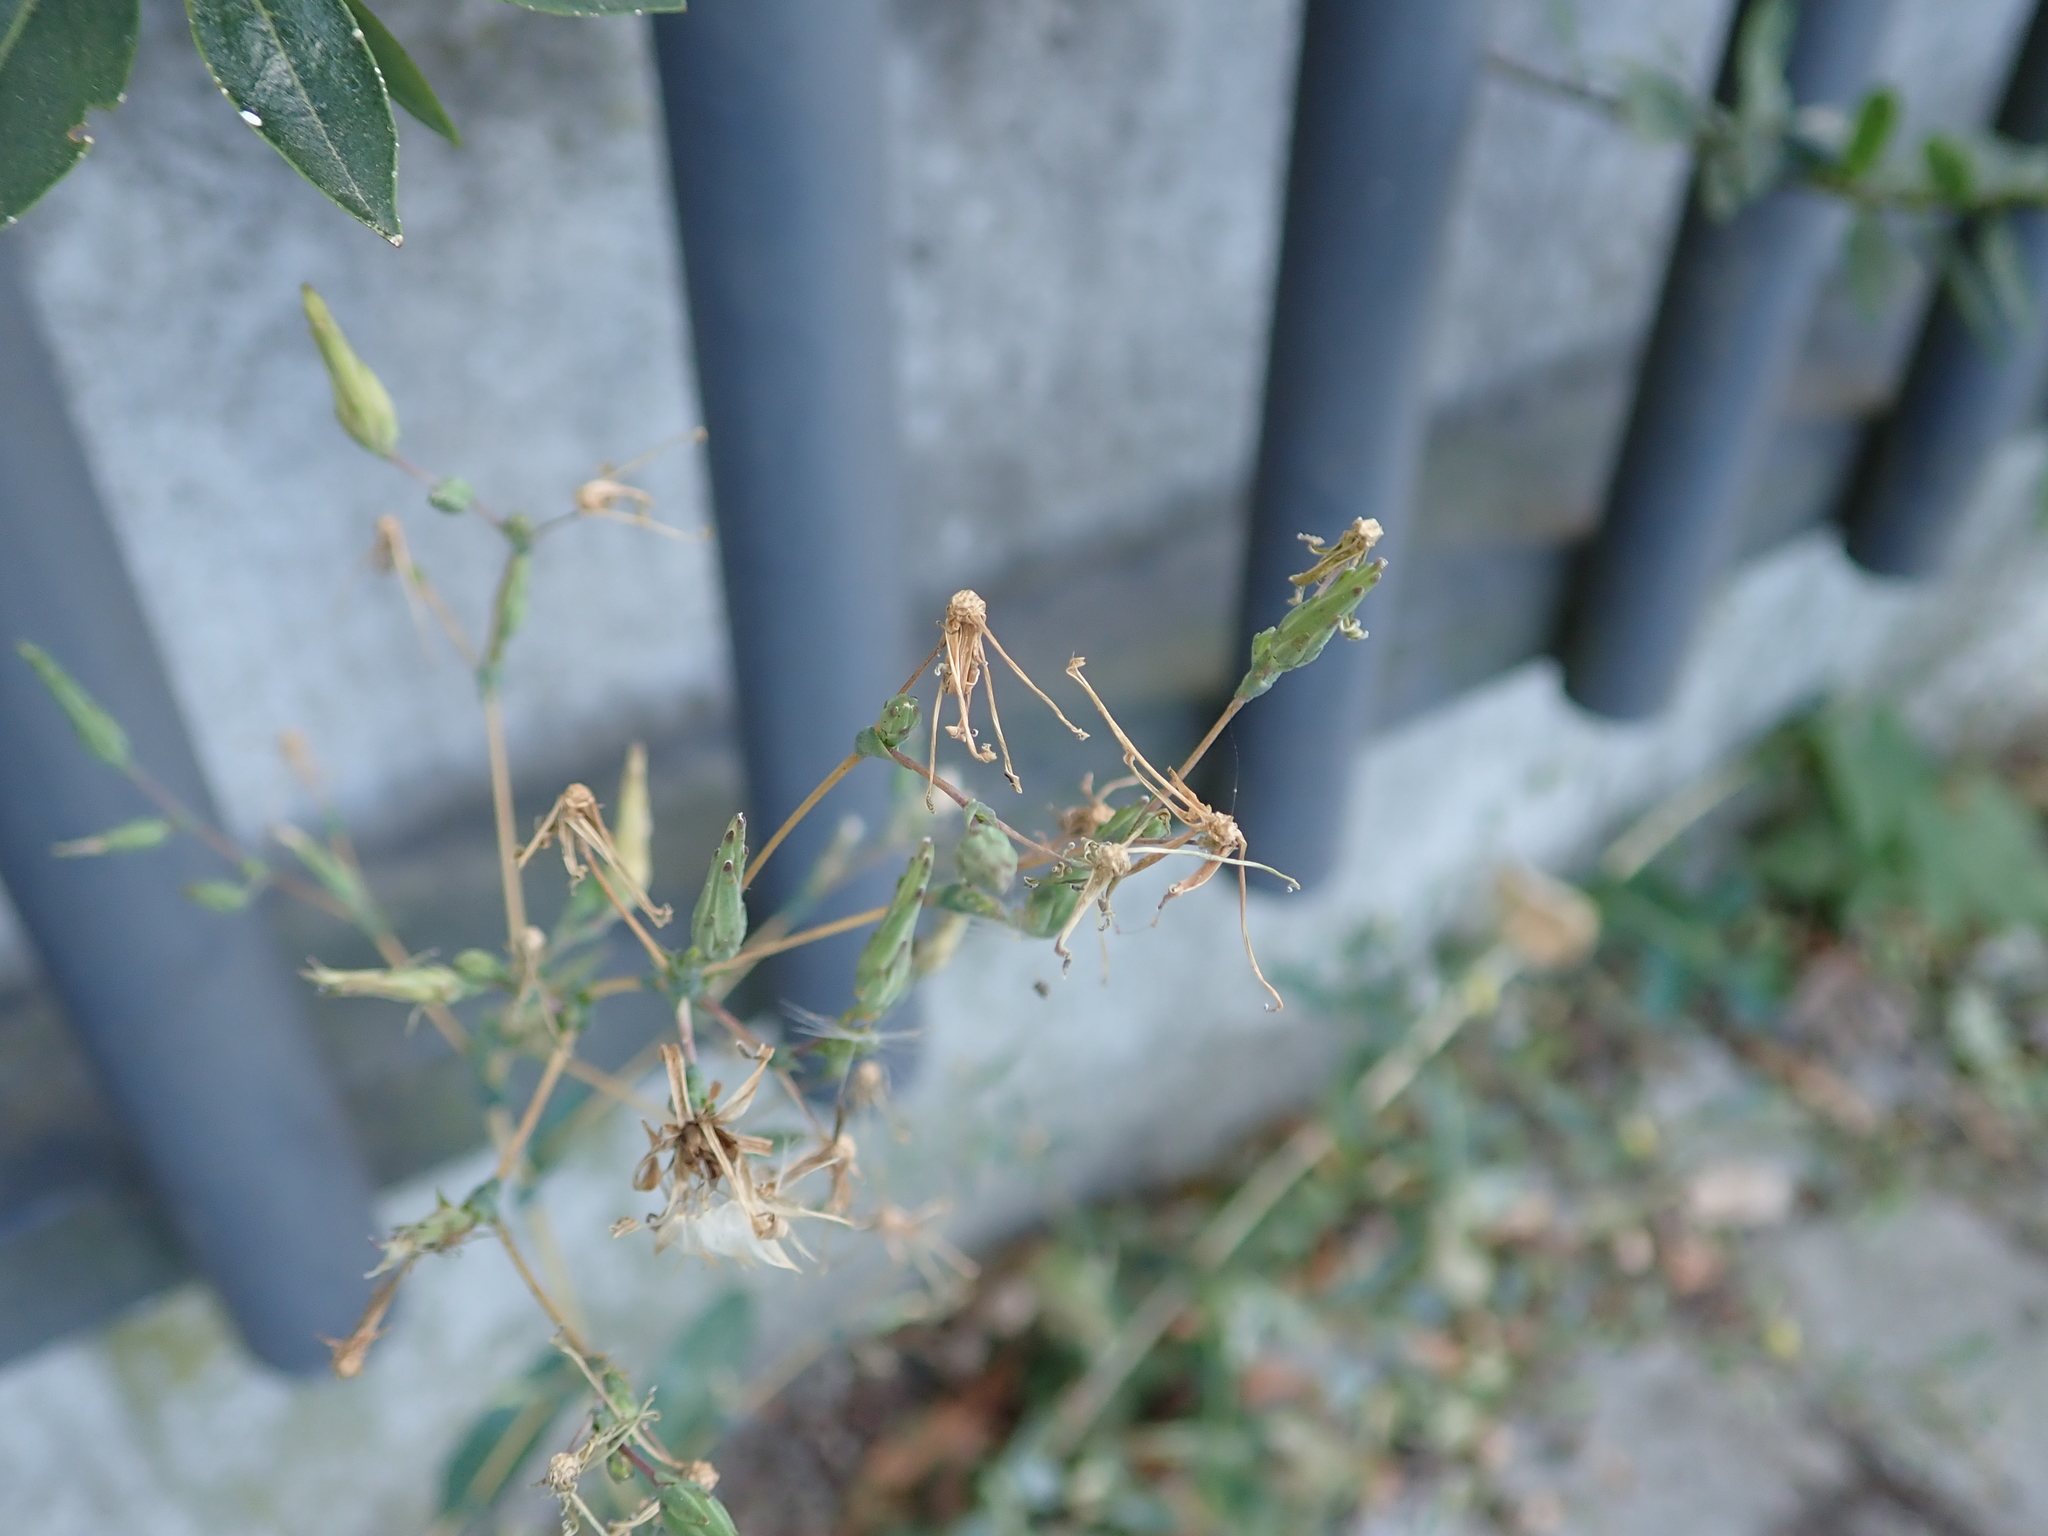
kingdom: Plantae
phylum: Tracheophyta
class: Magnoliopsida
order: Asterales
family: Asteraceae
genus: Mycelis
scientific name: Mycelis muralis
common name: Wall lettuce
